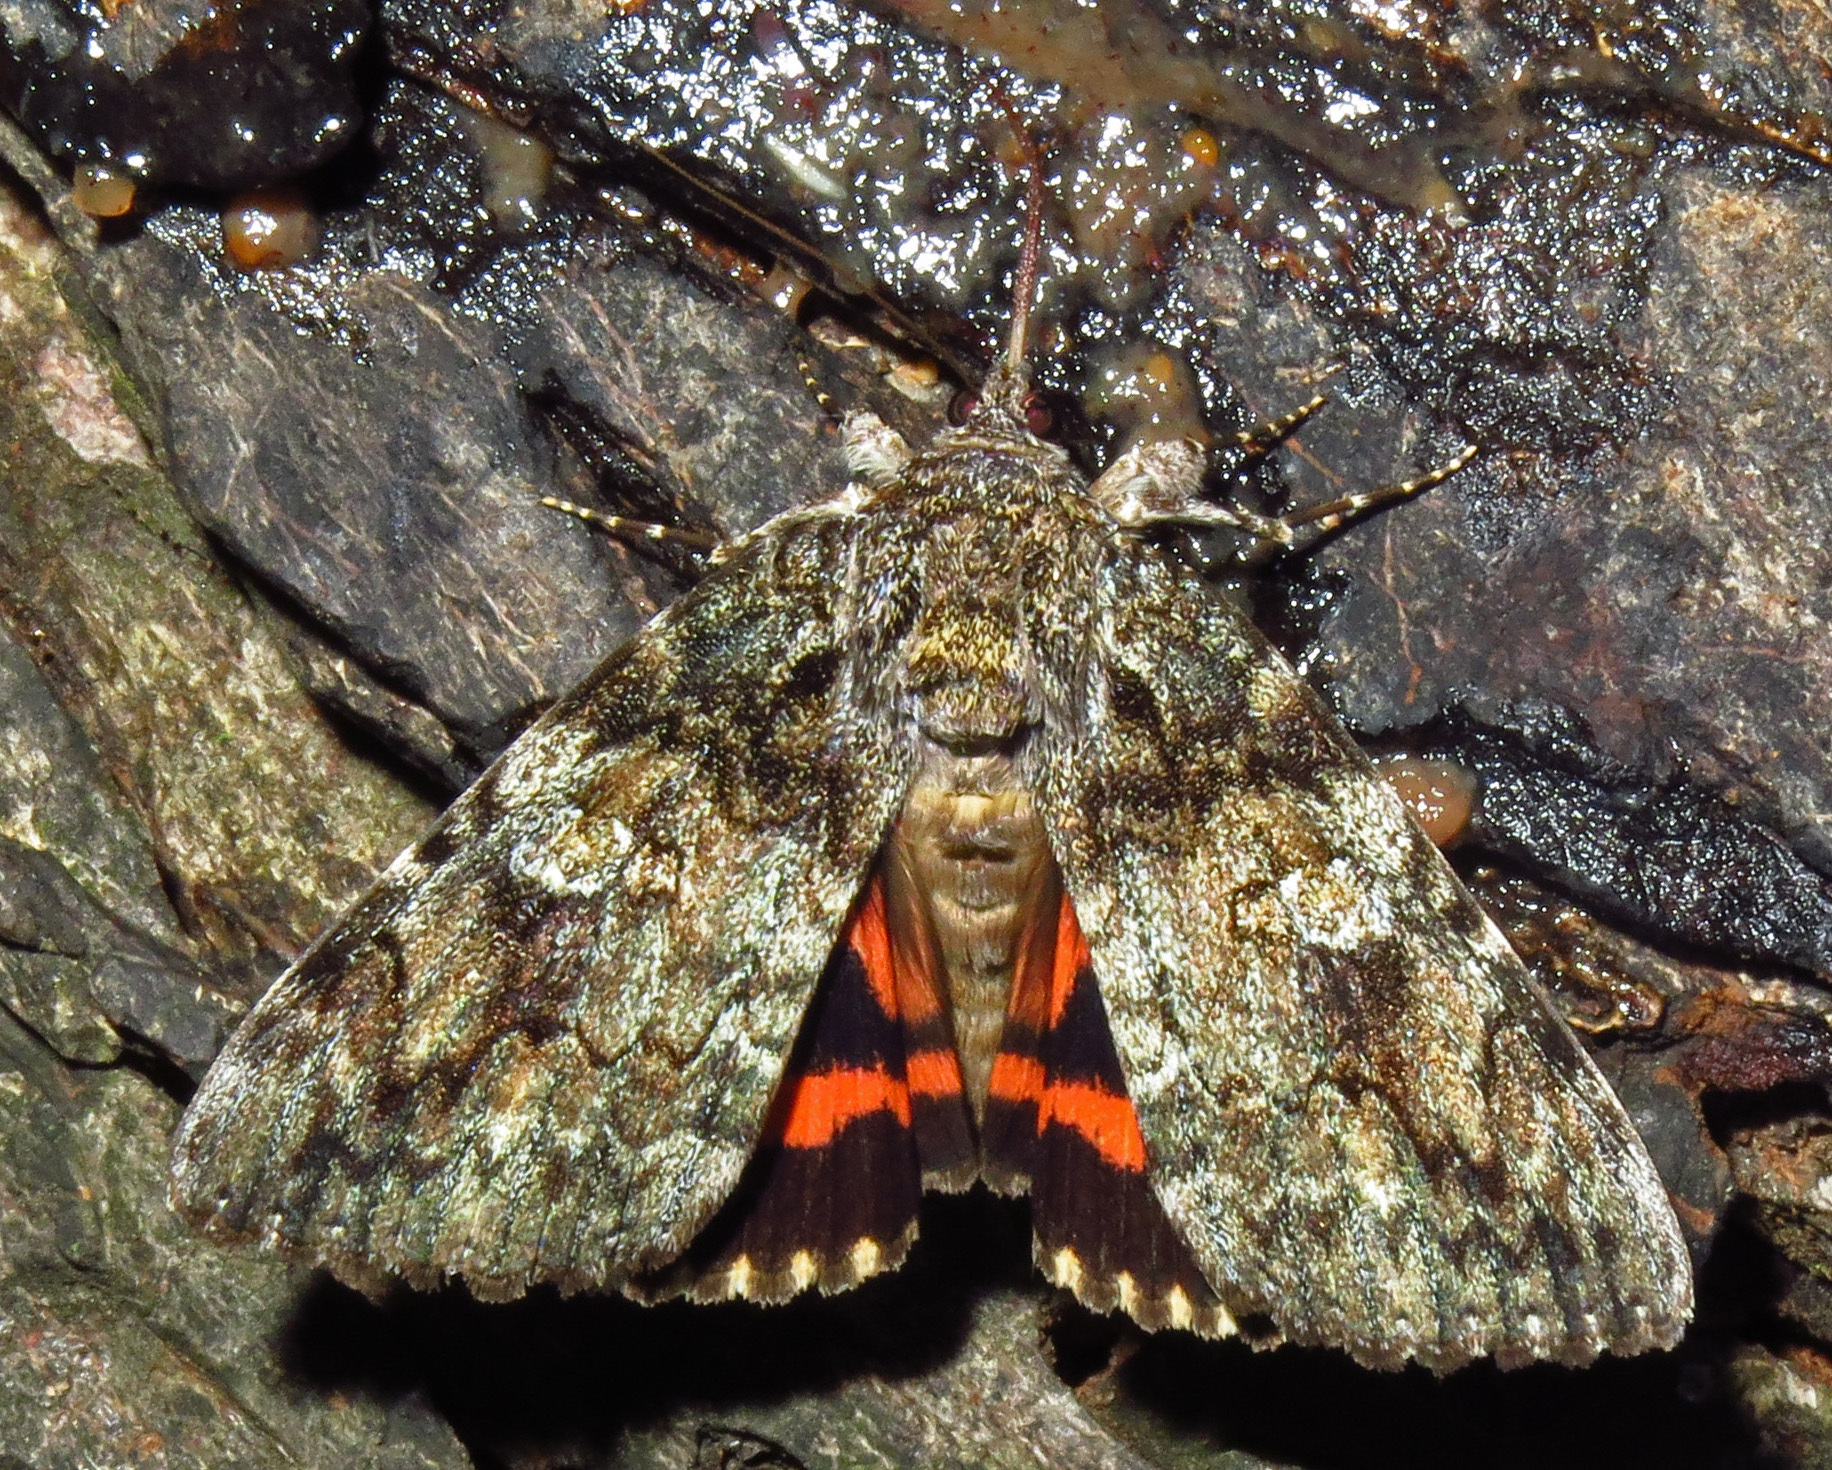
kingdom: Animalia
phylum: Arthropoda
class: Insecta
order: Lepidoptera
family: Erebidae
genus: Catocala
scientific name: Catocala ilia
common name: Ilia underwing
